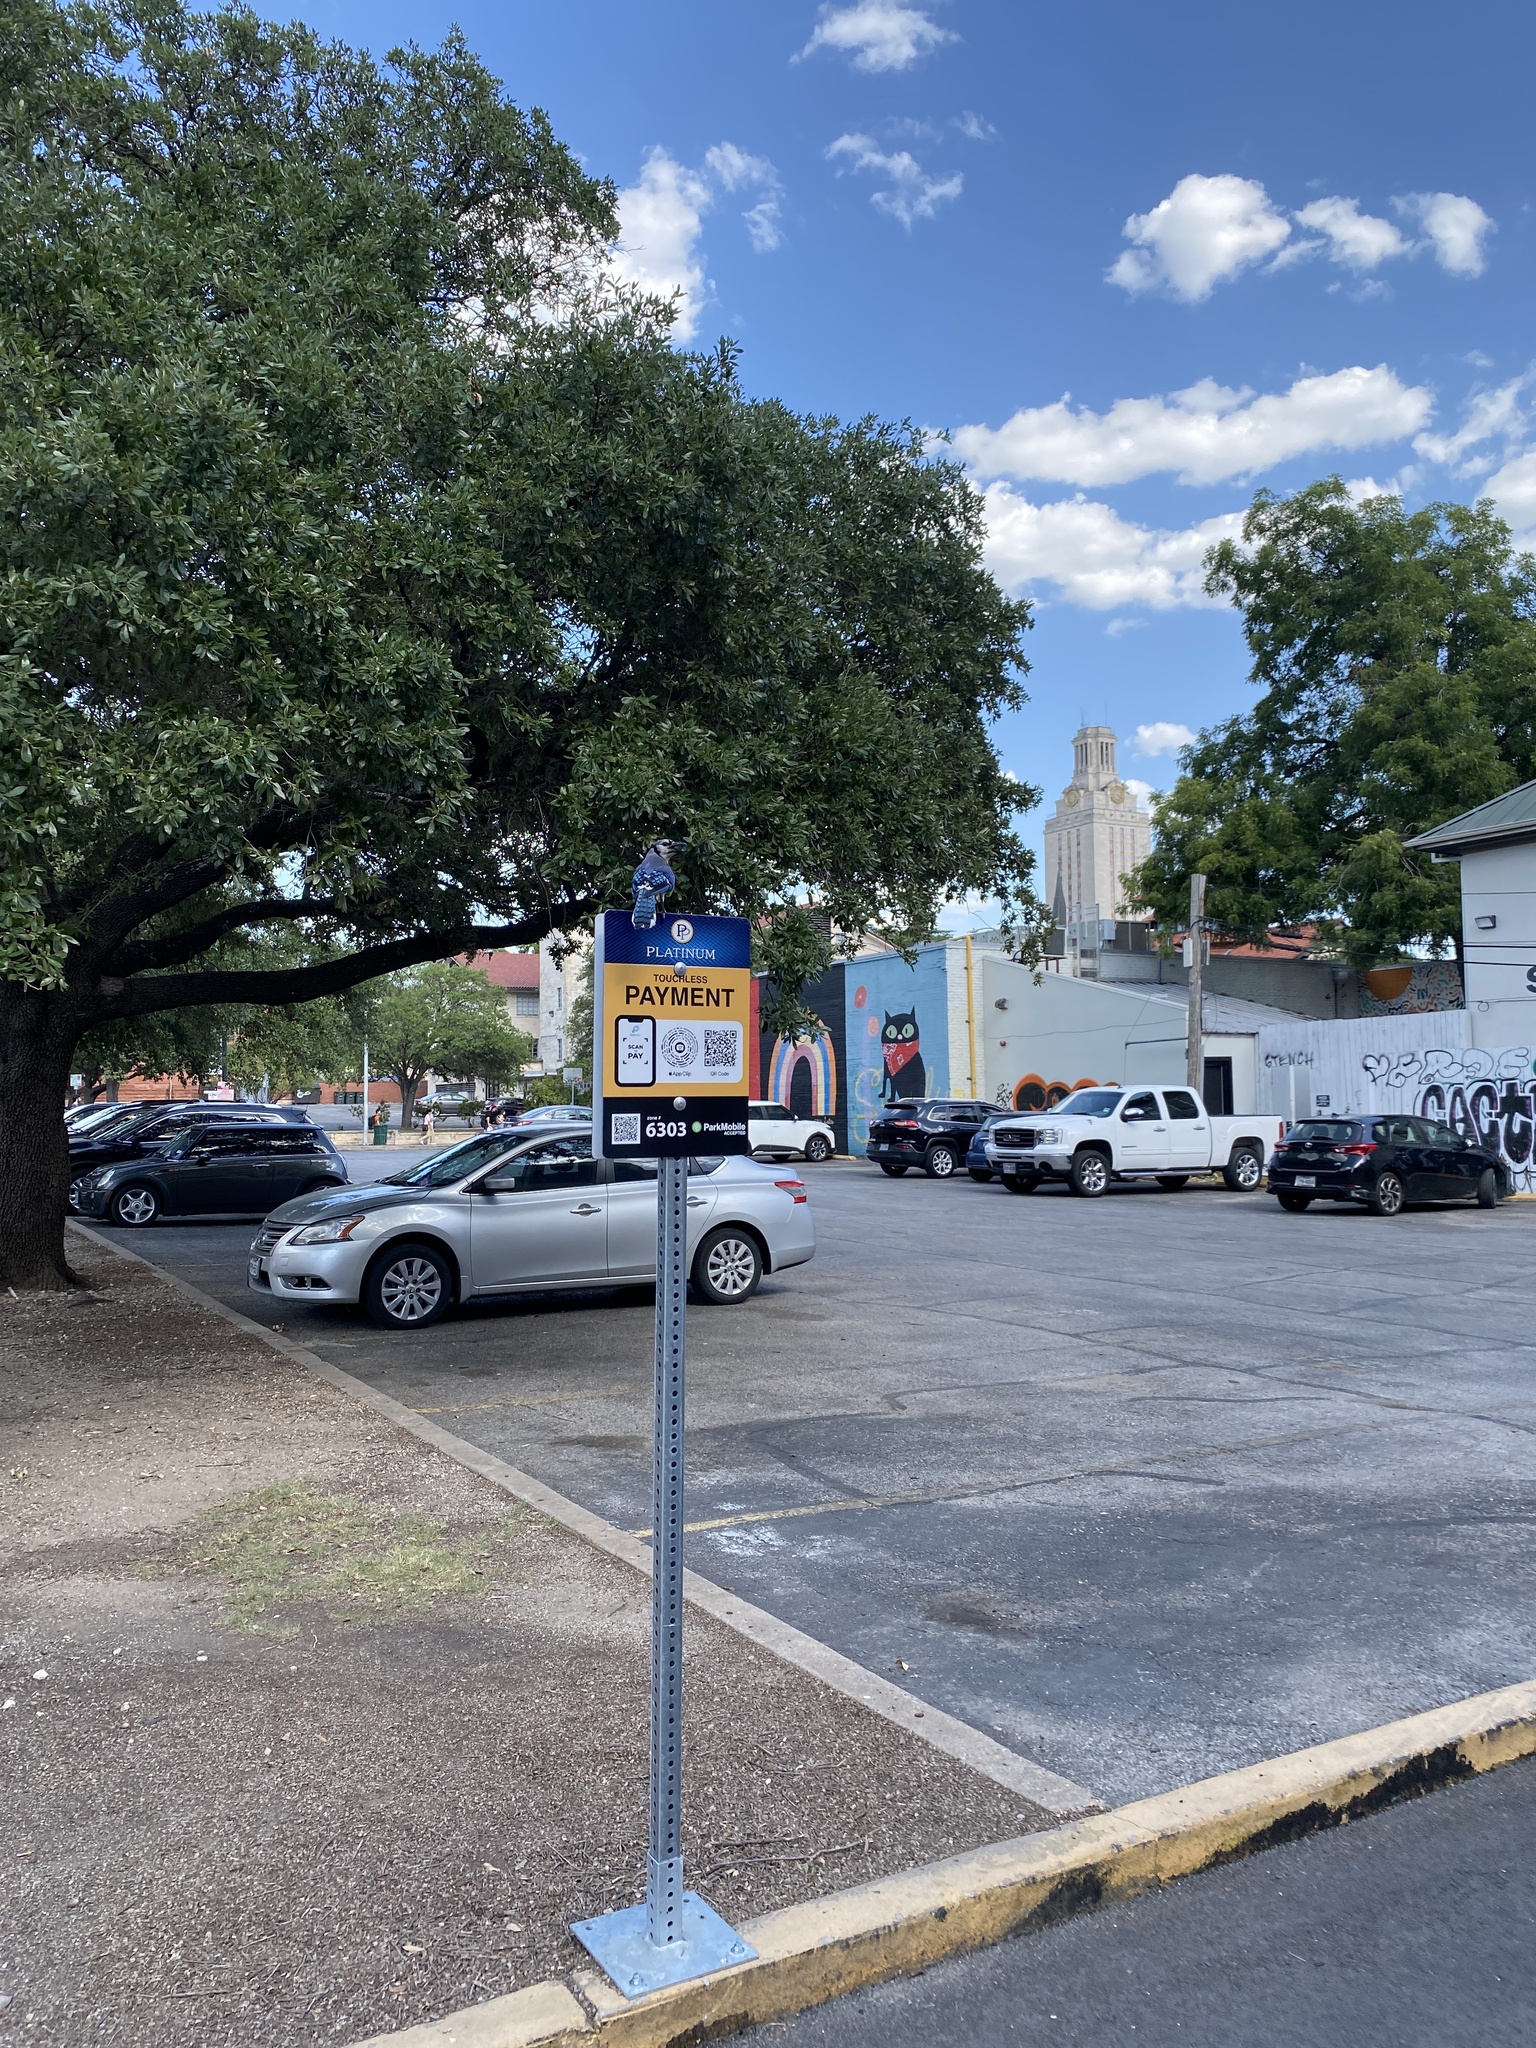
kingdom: Animalia
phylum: Chordata
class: Aves
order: Passeriformes
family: Corvidae
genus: Cyanocitta
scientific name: Cyanocitta cristata
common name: Blue jay
